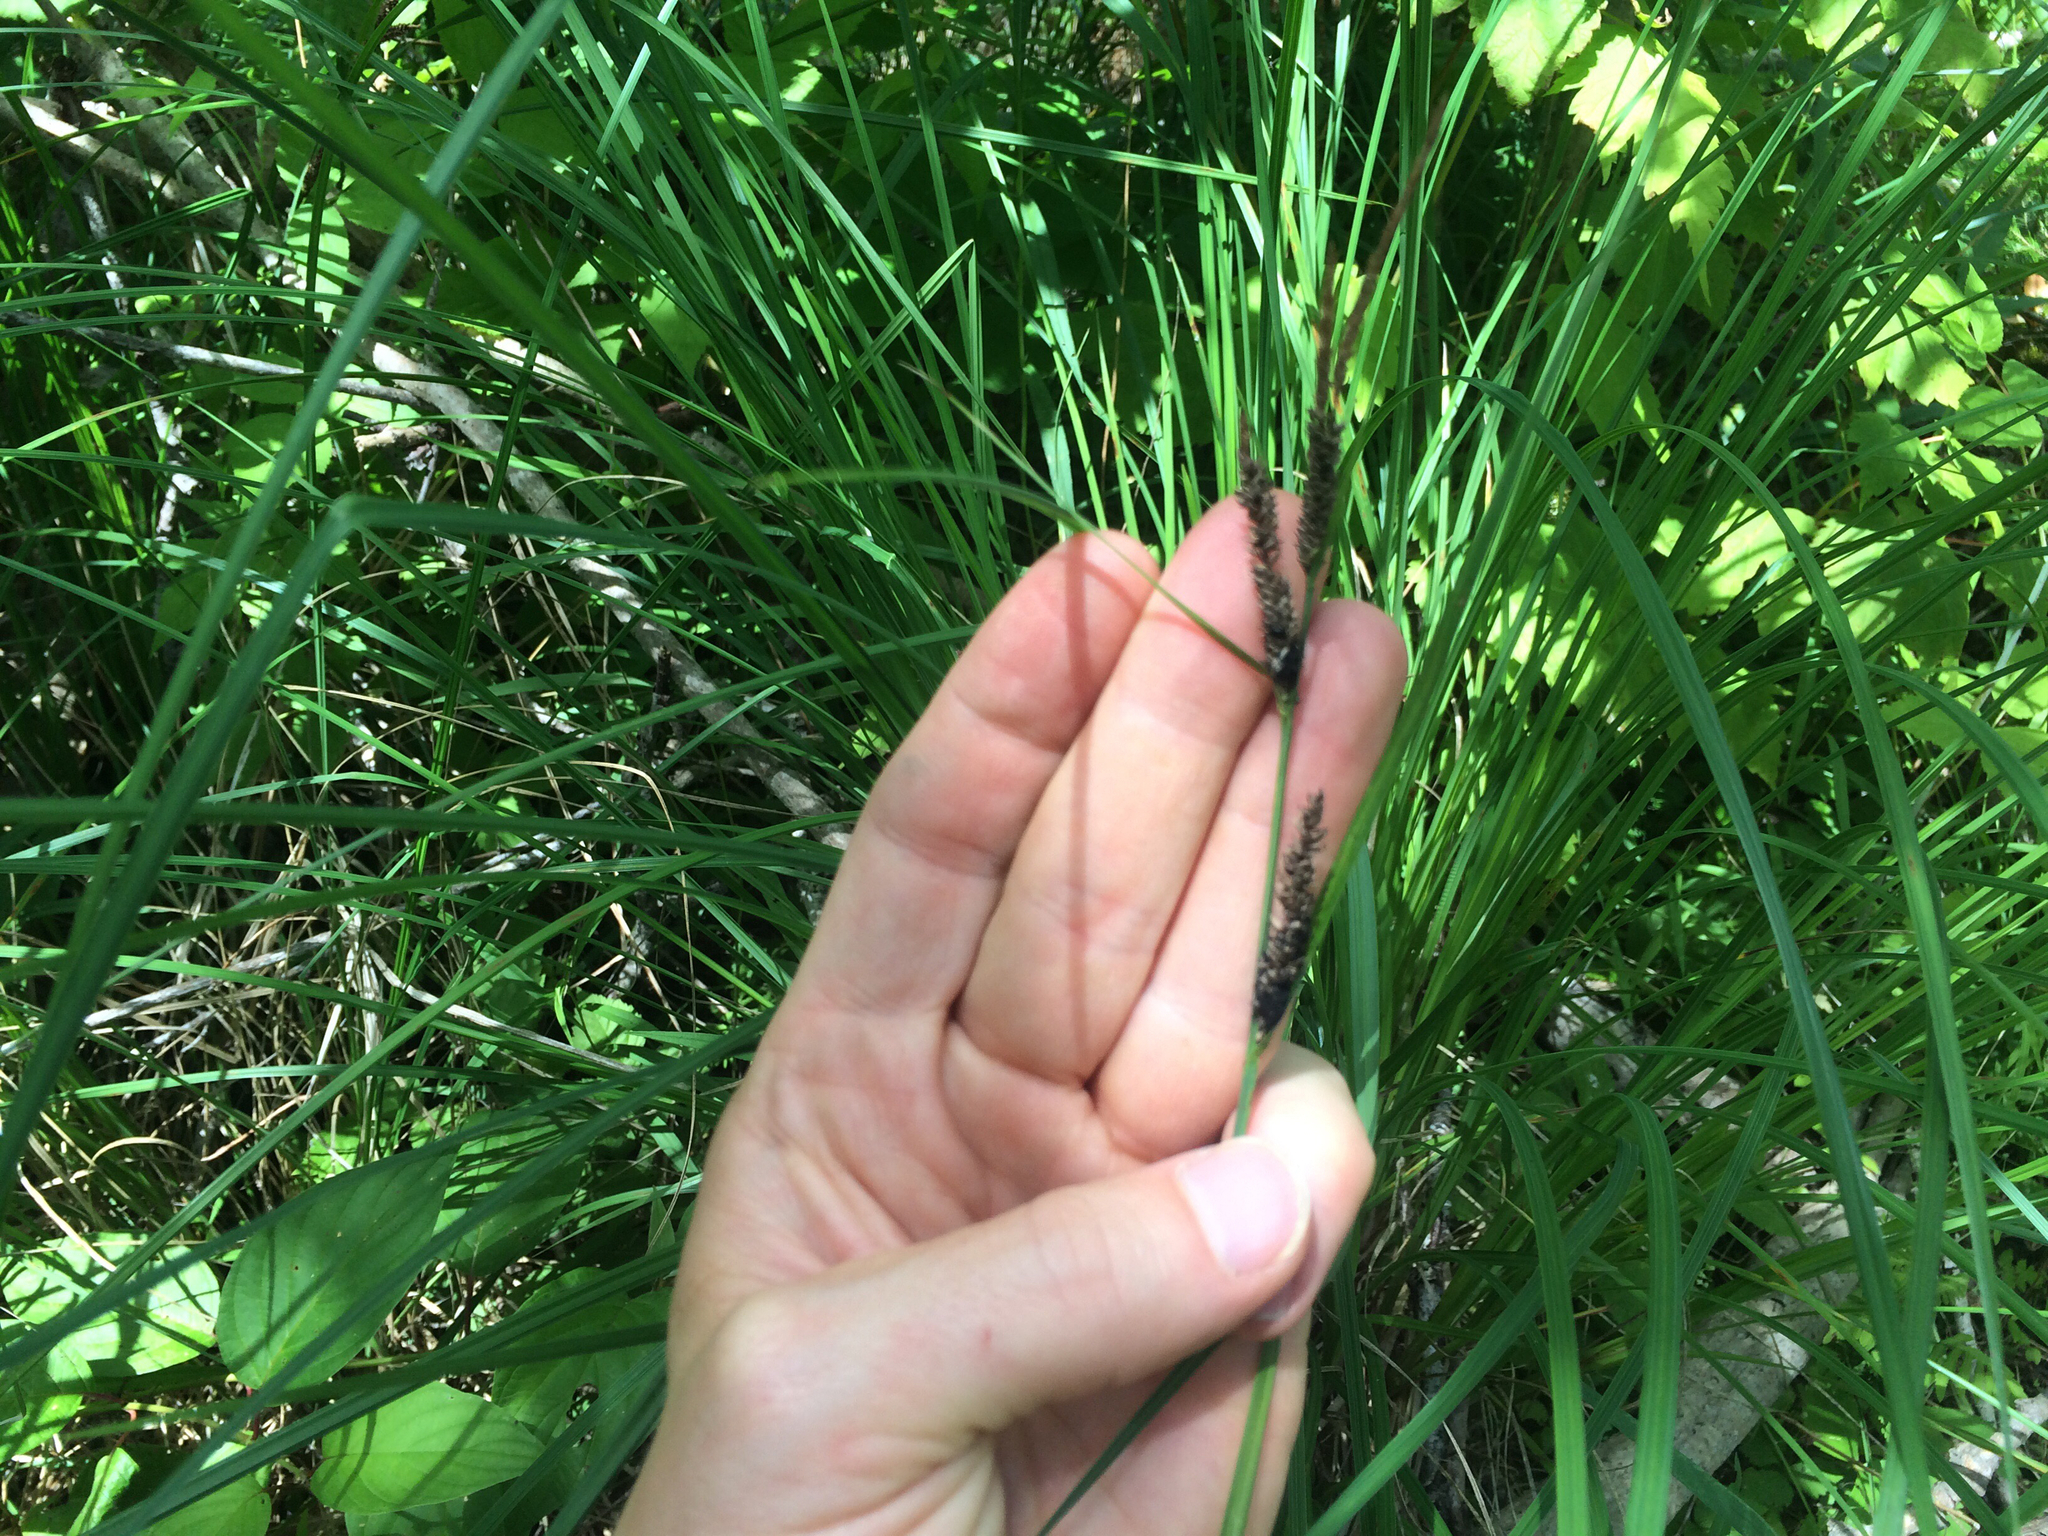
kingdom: Plantae
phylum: Tracheophyta
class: Liliopsida
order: Poales
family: Cyperaceae
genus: Carex
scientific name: Carex lacustris
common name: Common lake sedge
